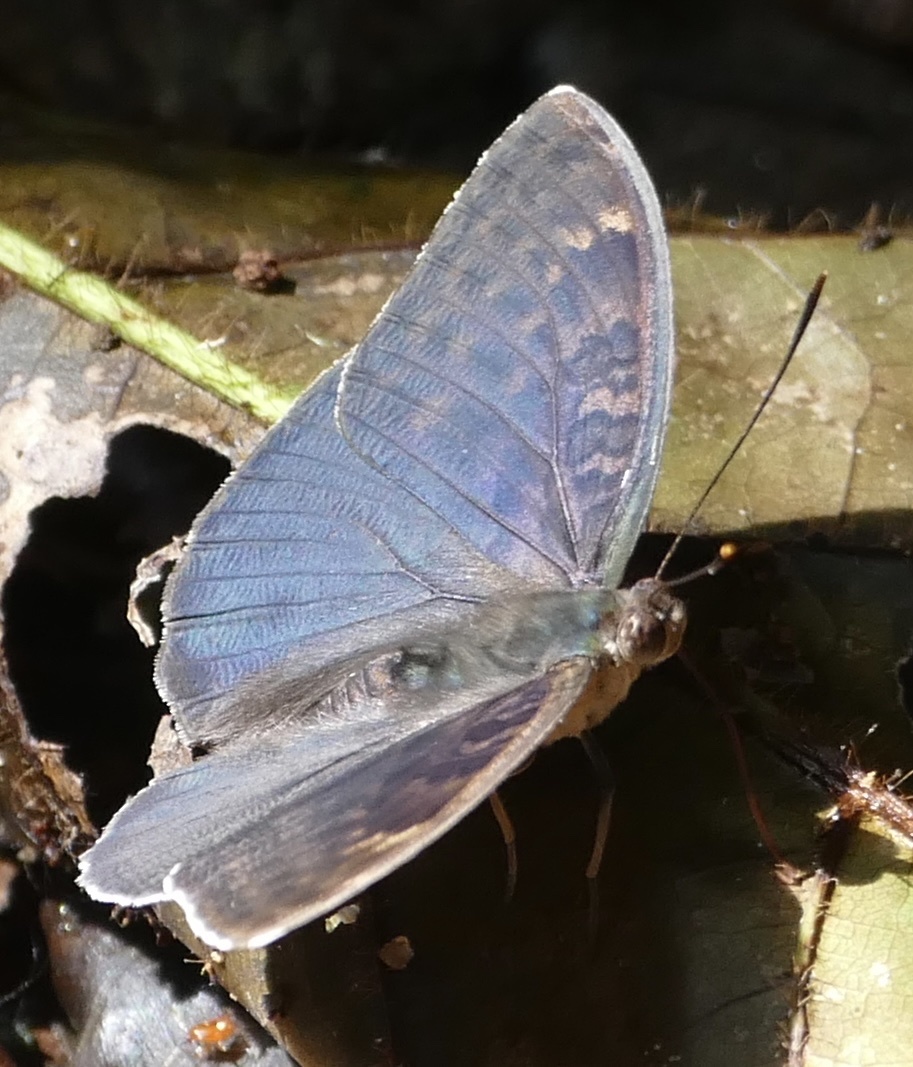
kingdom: Animalia
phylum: Arthropoda
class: Insecta
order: Lepidoptera
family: Nymphalidae
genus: Bebearia
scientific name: Bebearia abesa
